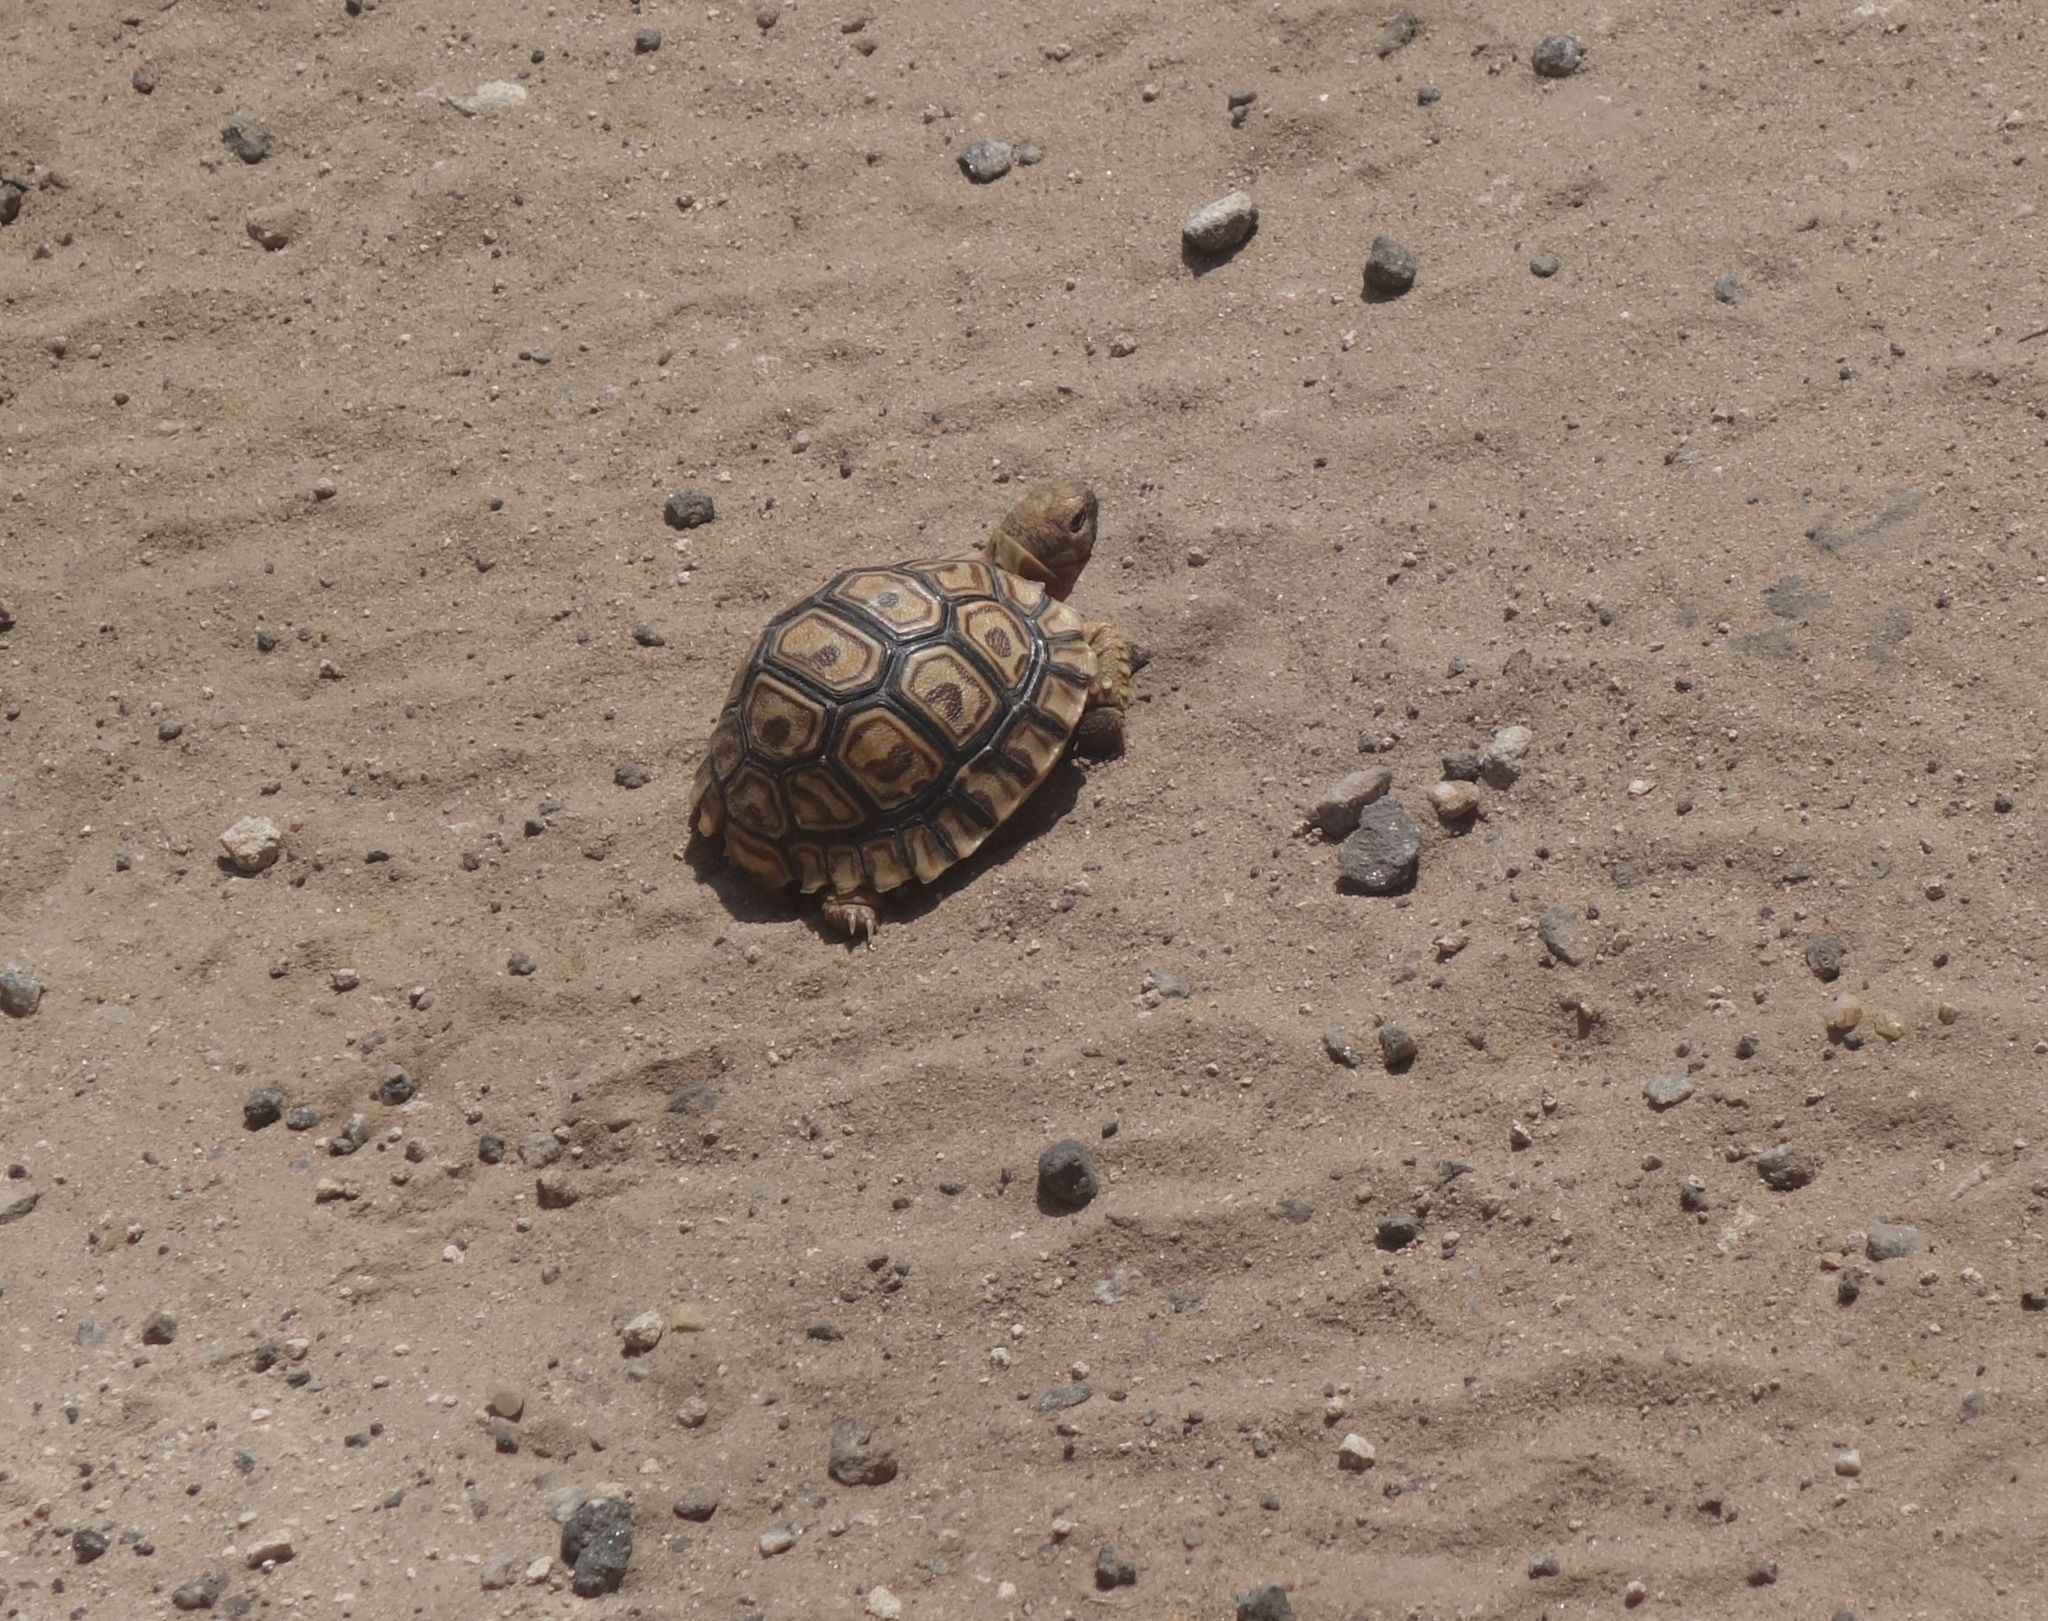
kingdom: Animalia
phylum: Chordata
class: Testudines
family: Testudinidae
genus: Stigmochelys
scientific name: Stigmochelys pardalis
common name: Leopard tortoise
